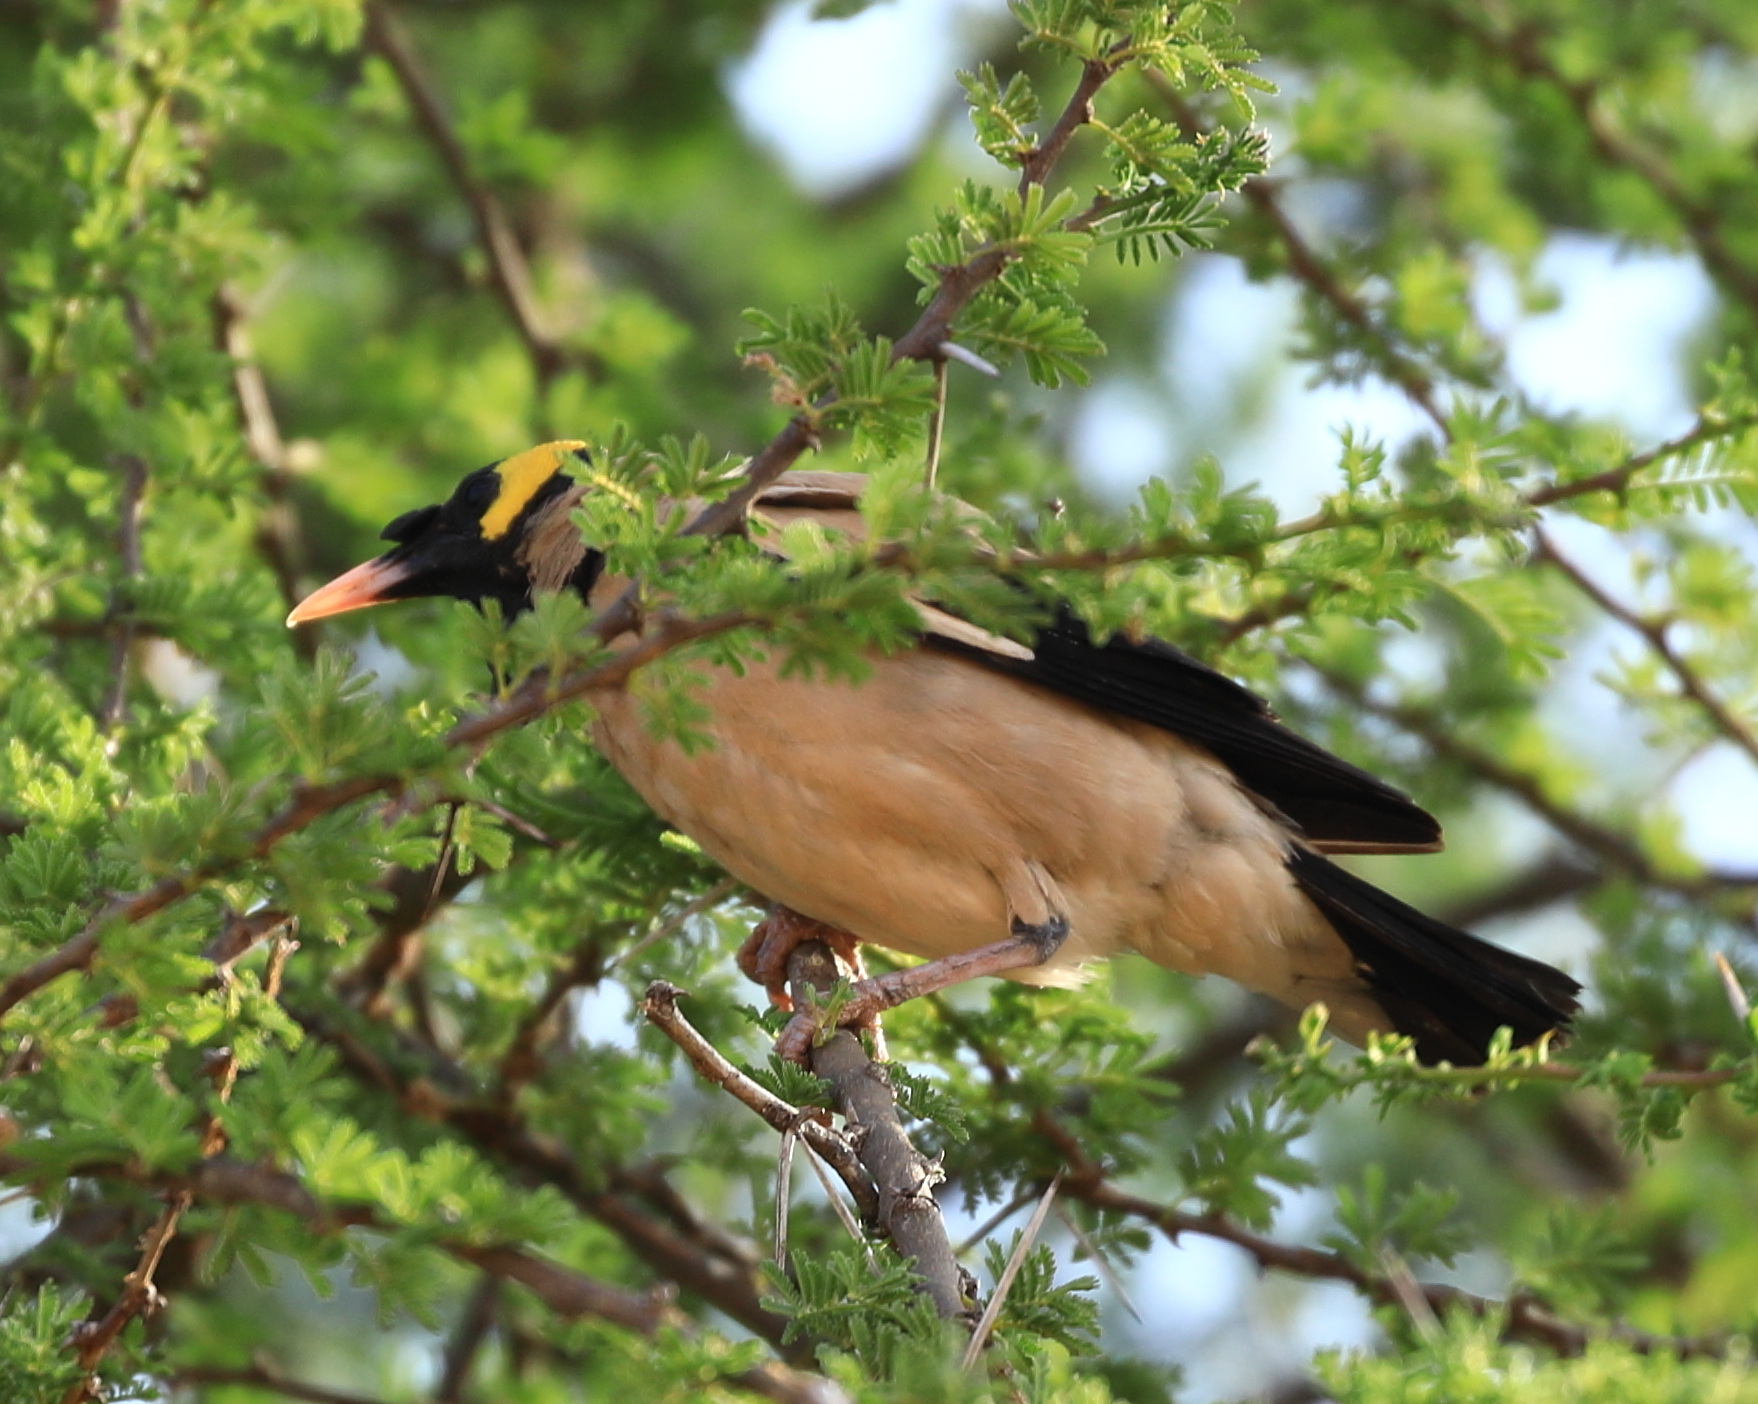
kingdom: Animalia
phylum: Chordata
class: Aves
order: Passeriformes
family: Sturnidae
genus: Creatophora
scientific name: Creatophora cinerea
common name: Wattled starling
